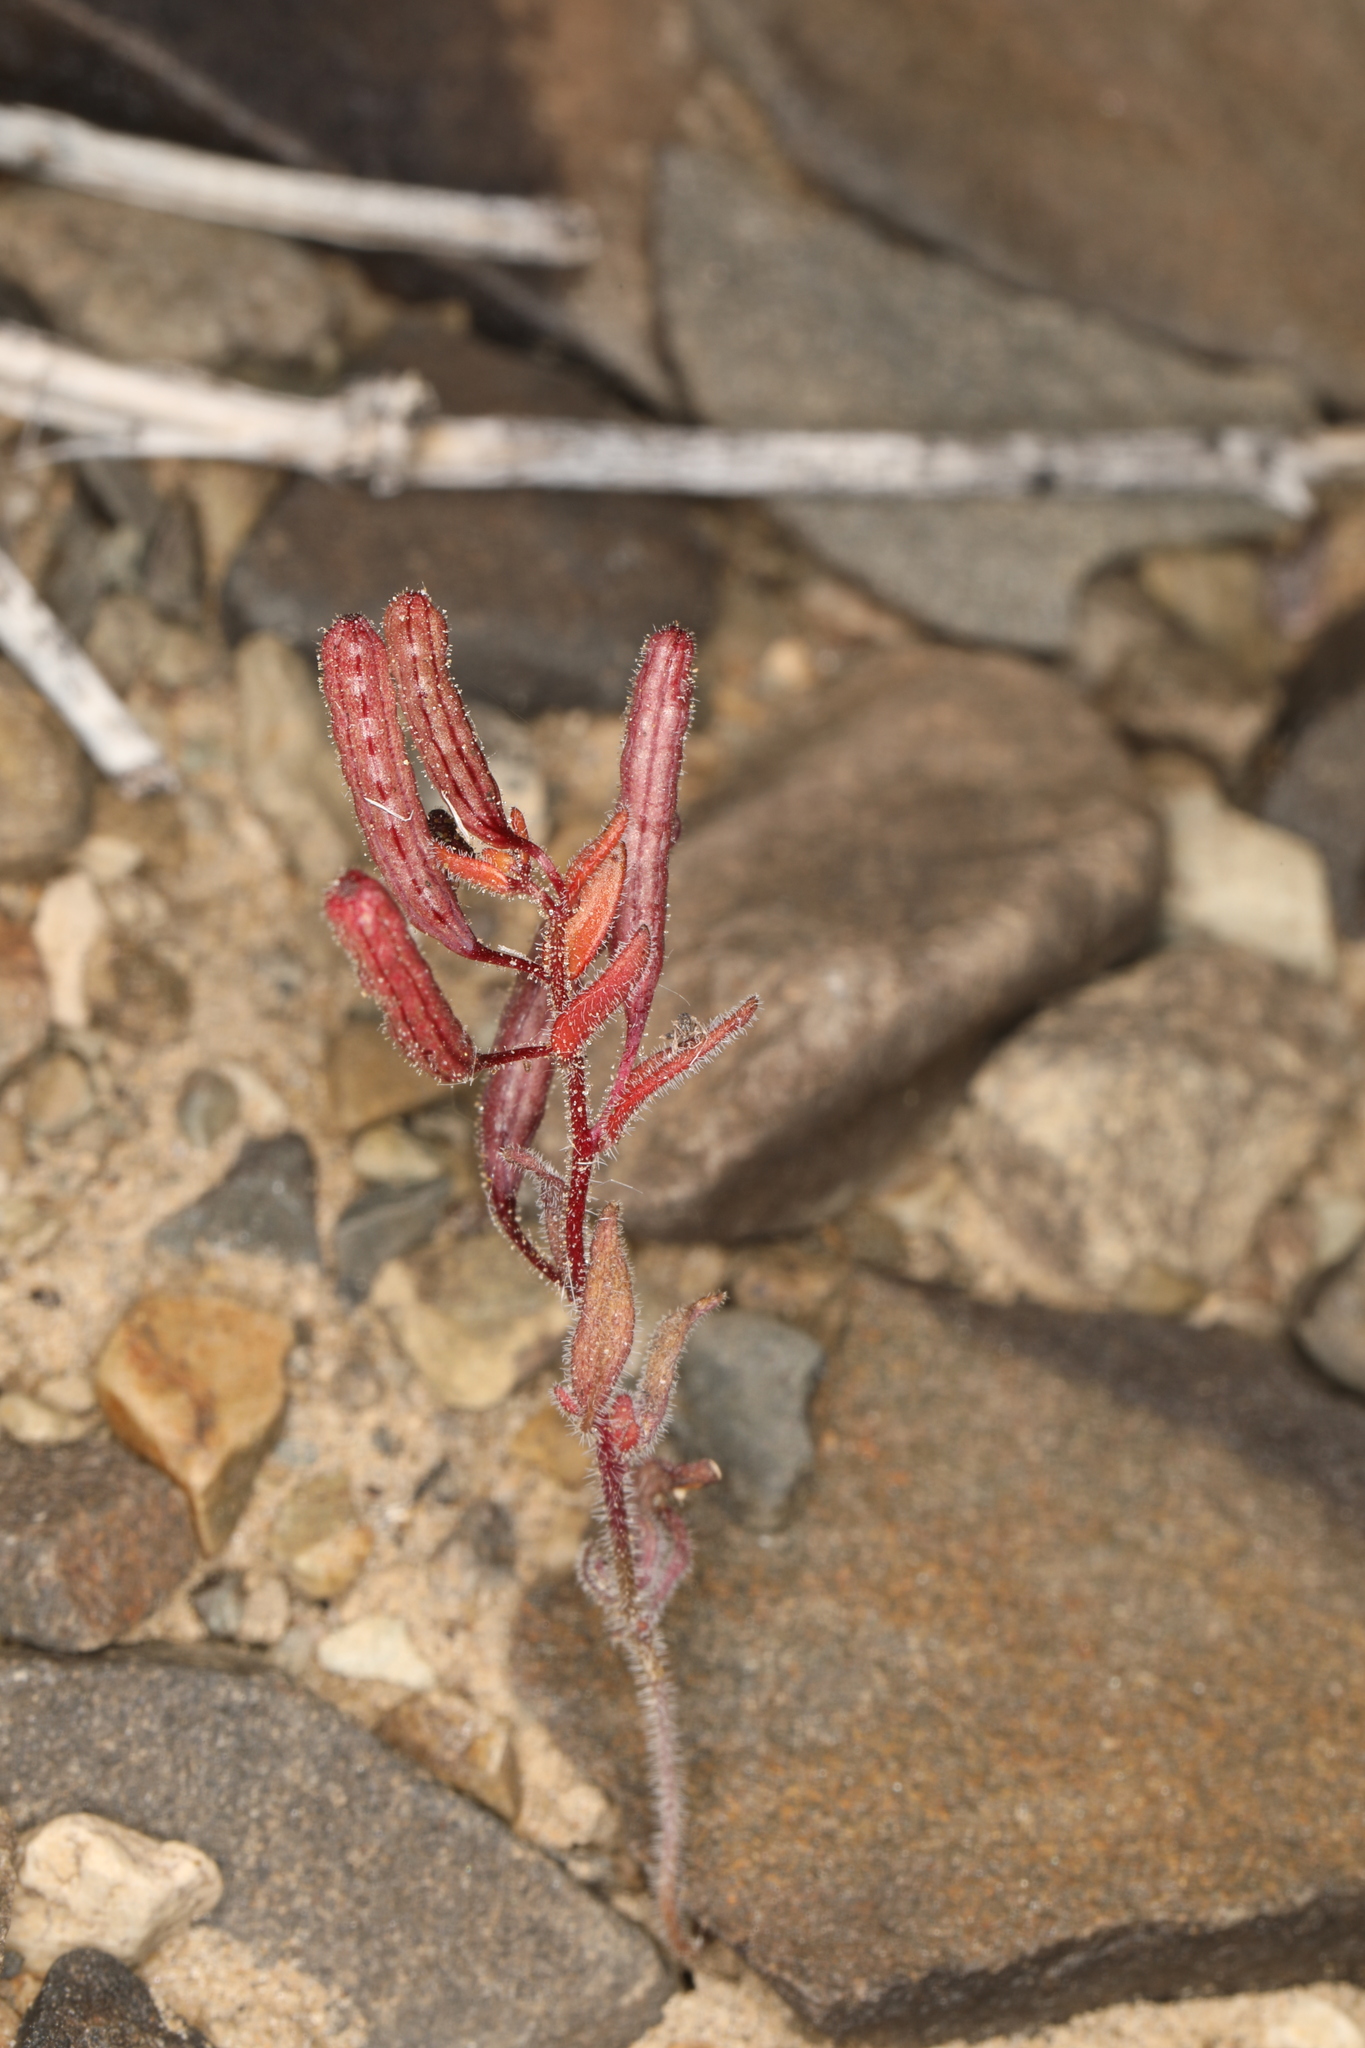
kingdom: Plantae
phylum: Tracheophyta
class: Magnoliopsida
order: Myrtales
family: Onagraceae
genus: Chylismiella
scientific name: Chylismiella pterosperma
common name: Wingfruit suncup
